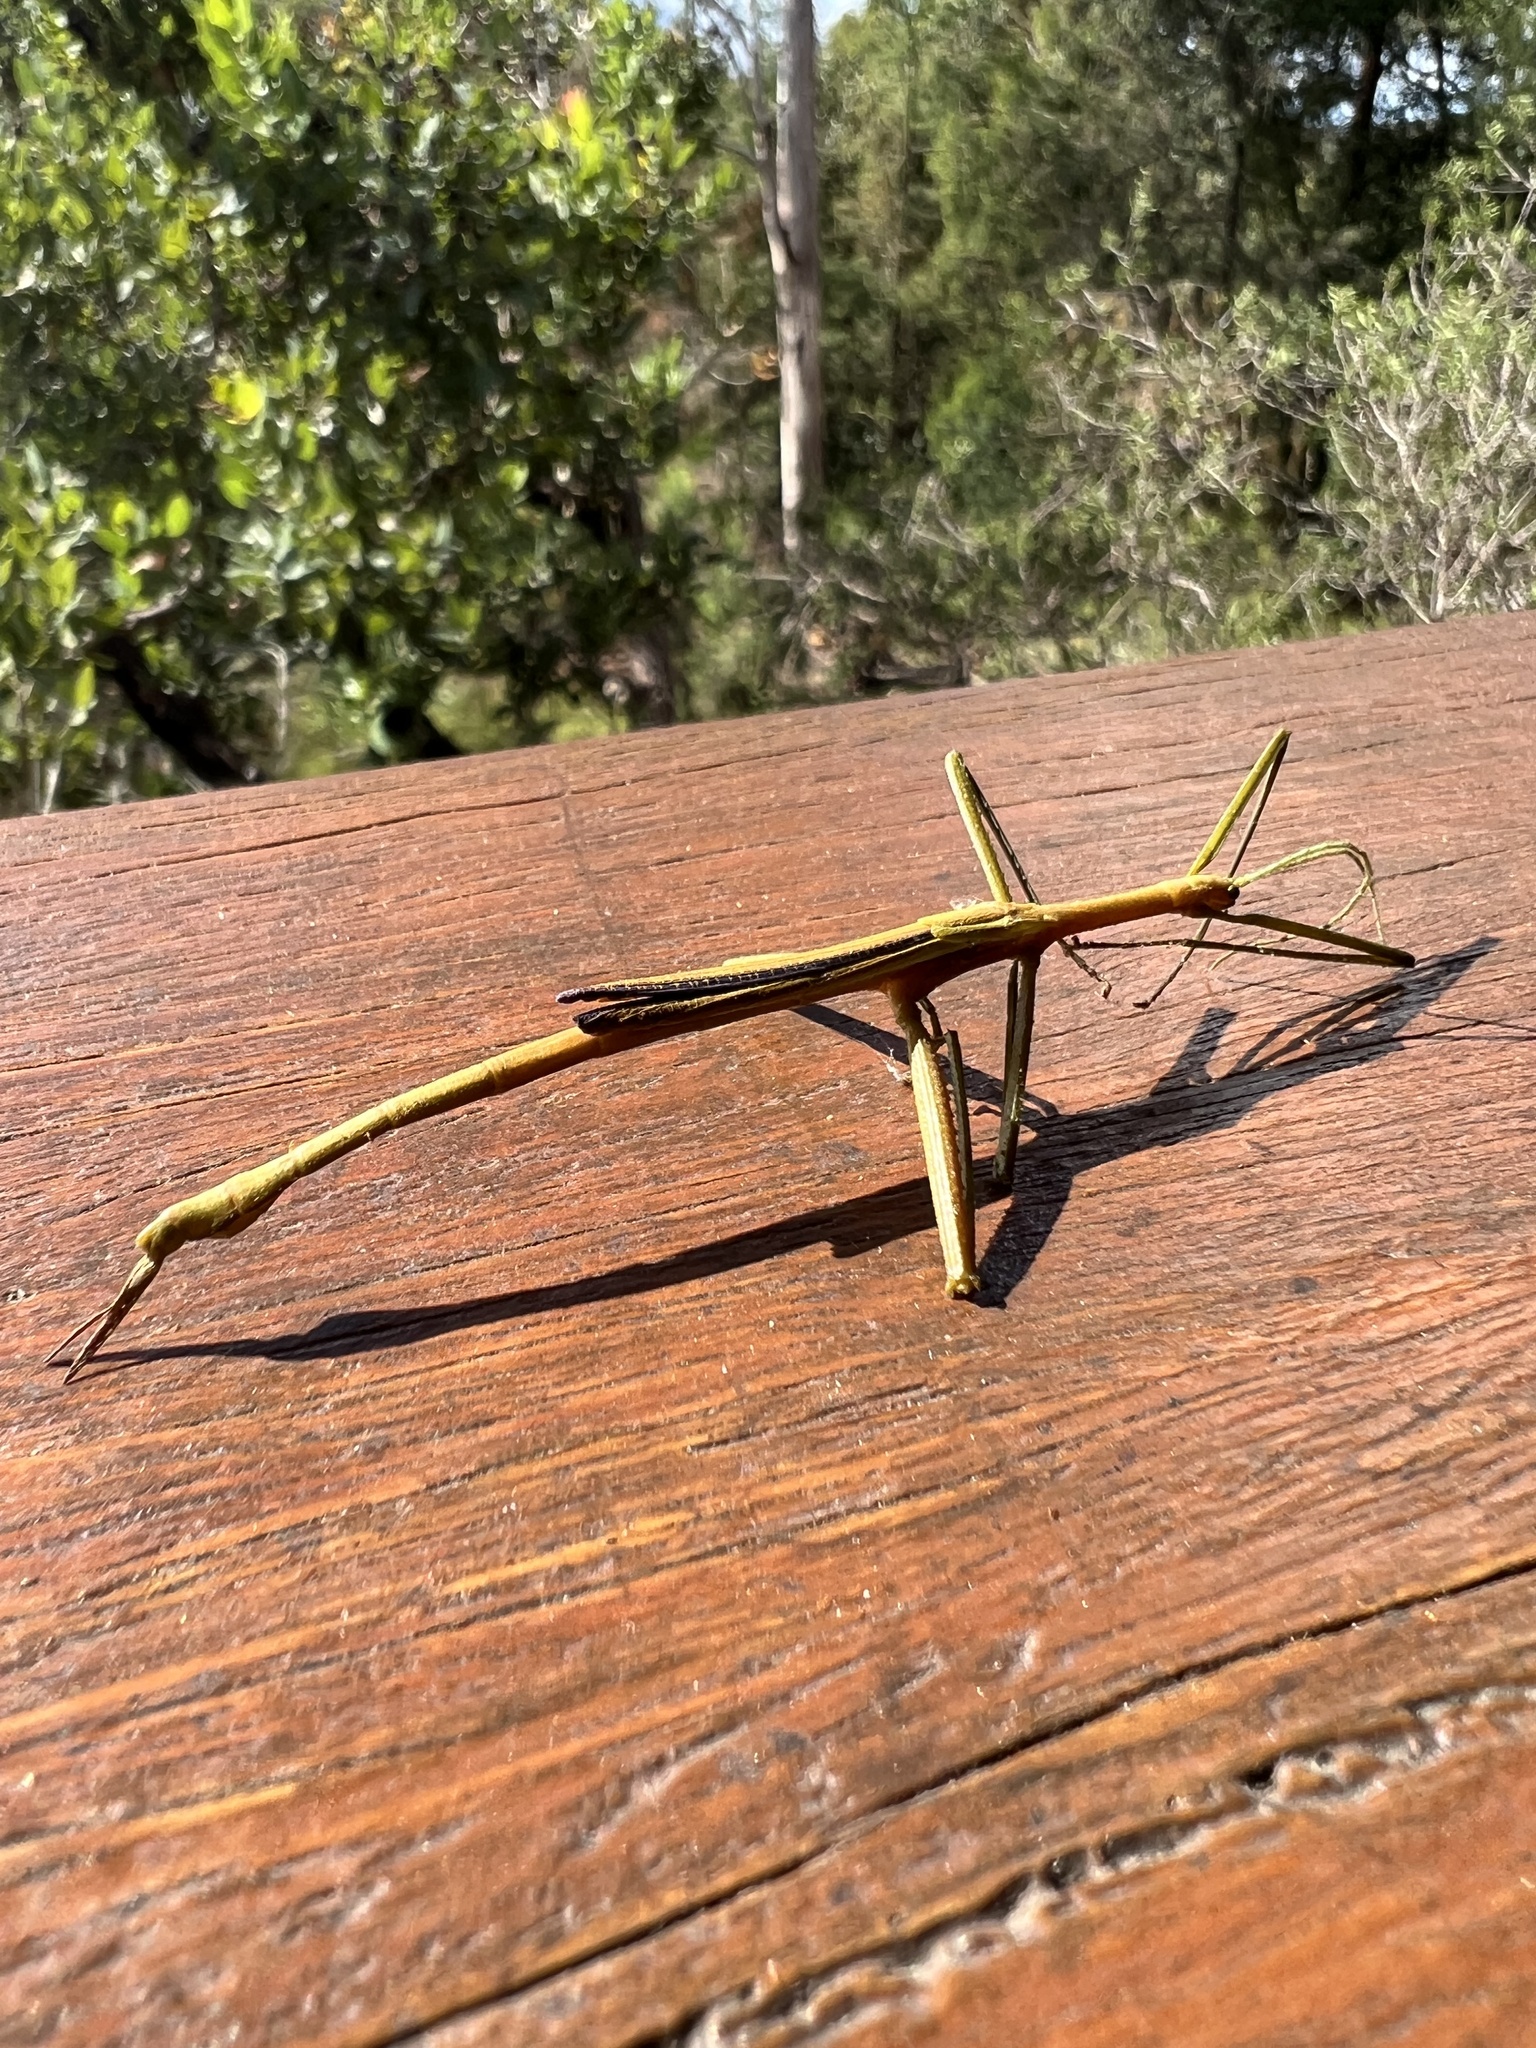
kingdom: Animalia
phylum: Arthropoda
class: Insecta
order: Phasmida
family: Phasmatidae
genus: Didymuria
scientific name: Didymuria violescens
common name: Spur-legged stick-insect
